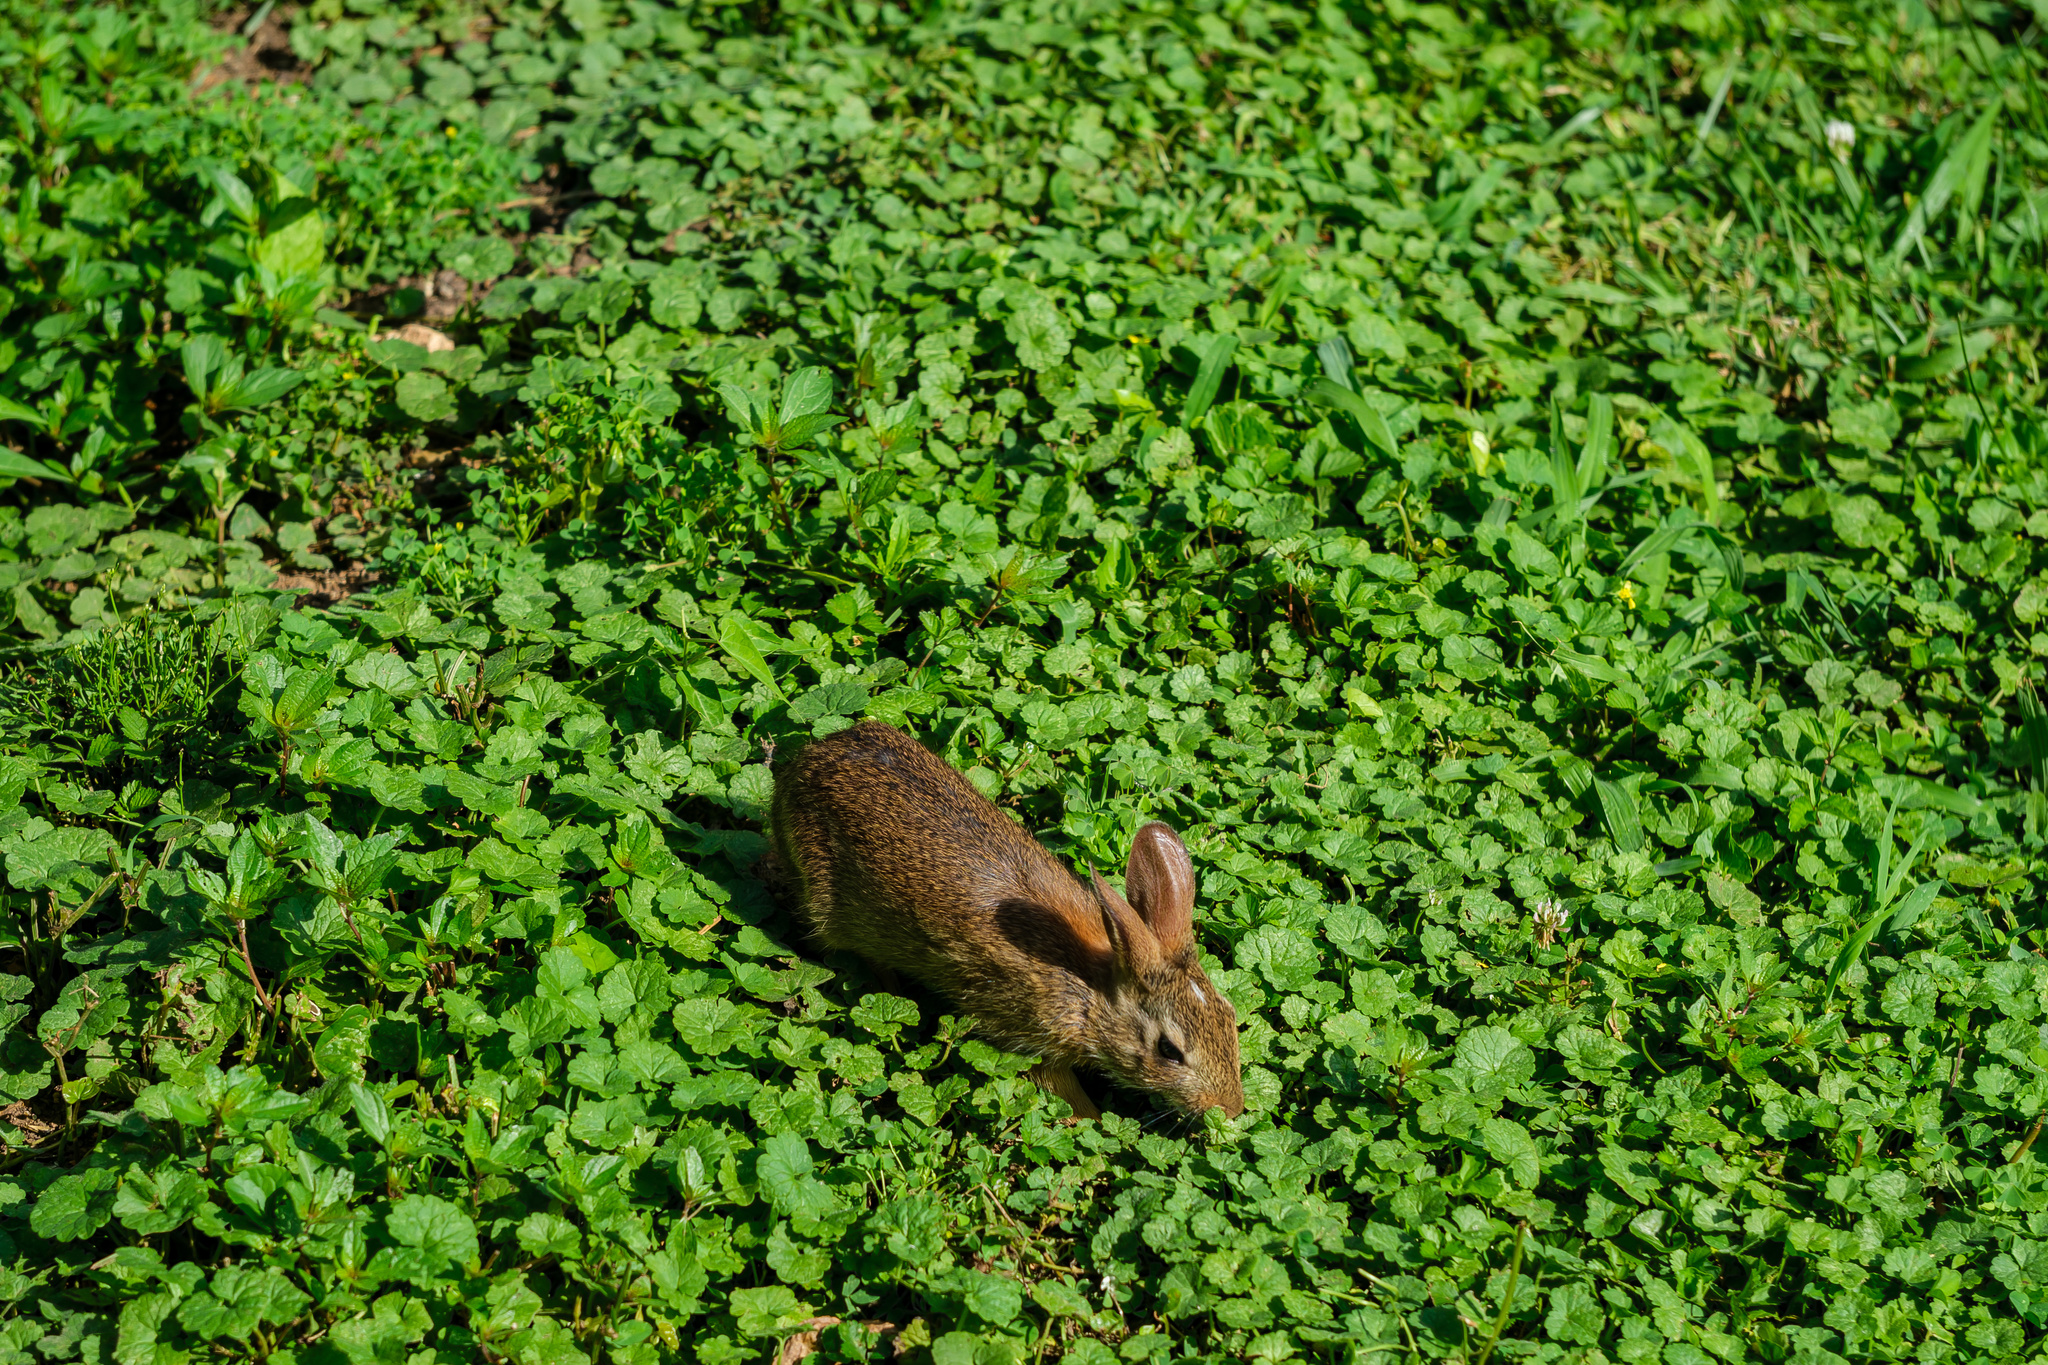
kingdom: Animalia
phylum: Chordata
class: Mammalia
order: Lagomorpha
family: Leporidae
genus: Sylvilagus
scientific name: Sylvilagus floridanus
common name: Eastern cottontail
